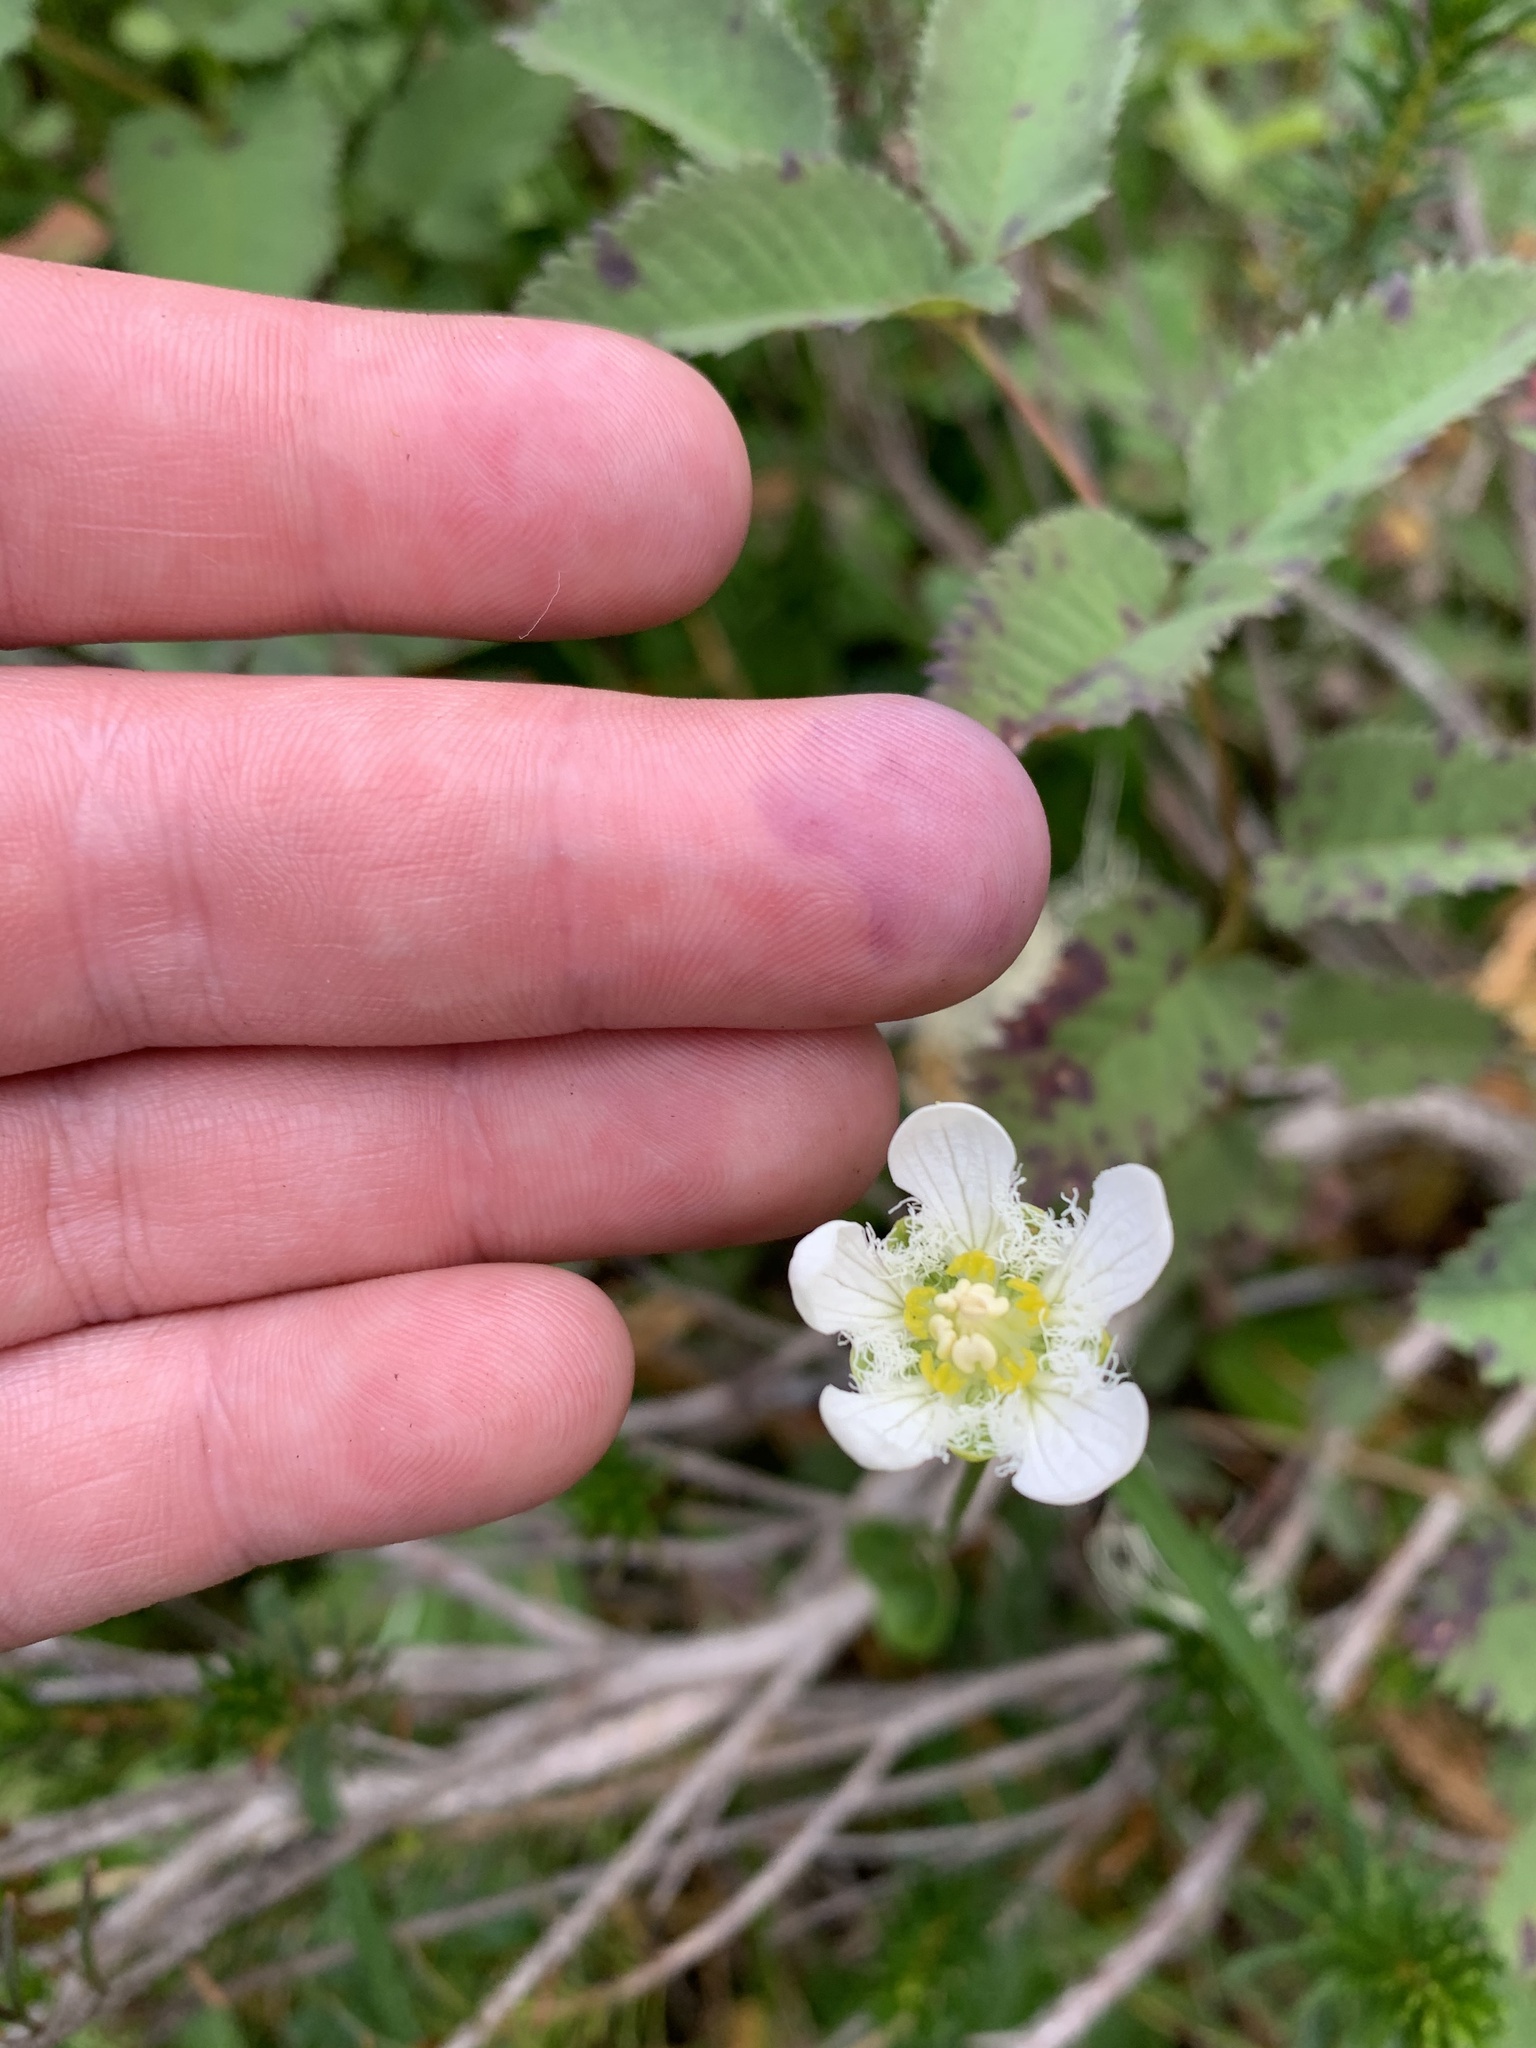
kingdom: Plantae
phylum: Tracheophyta
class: Magnoliopsida
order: Celastrales
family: Parnassiaceae
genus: Parnassia
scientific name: Parnassia fimbriata
